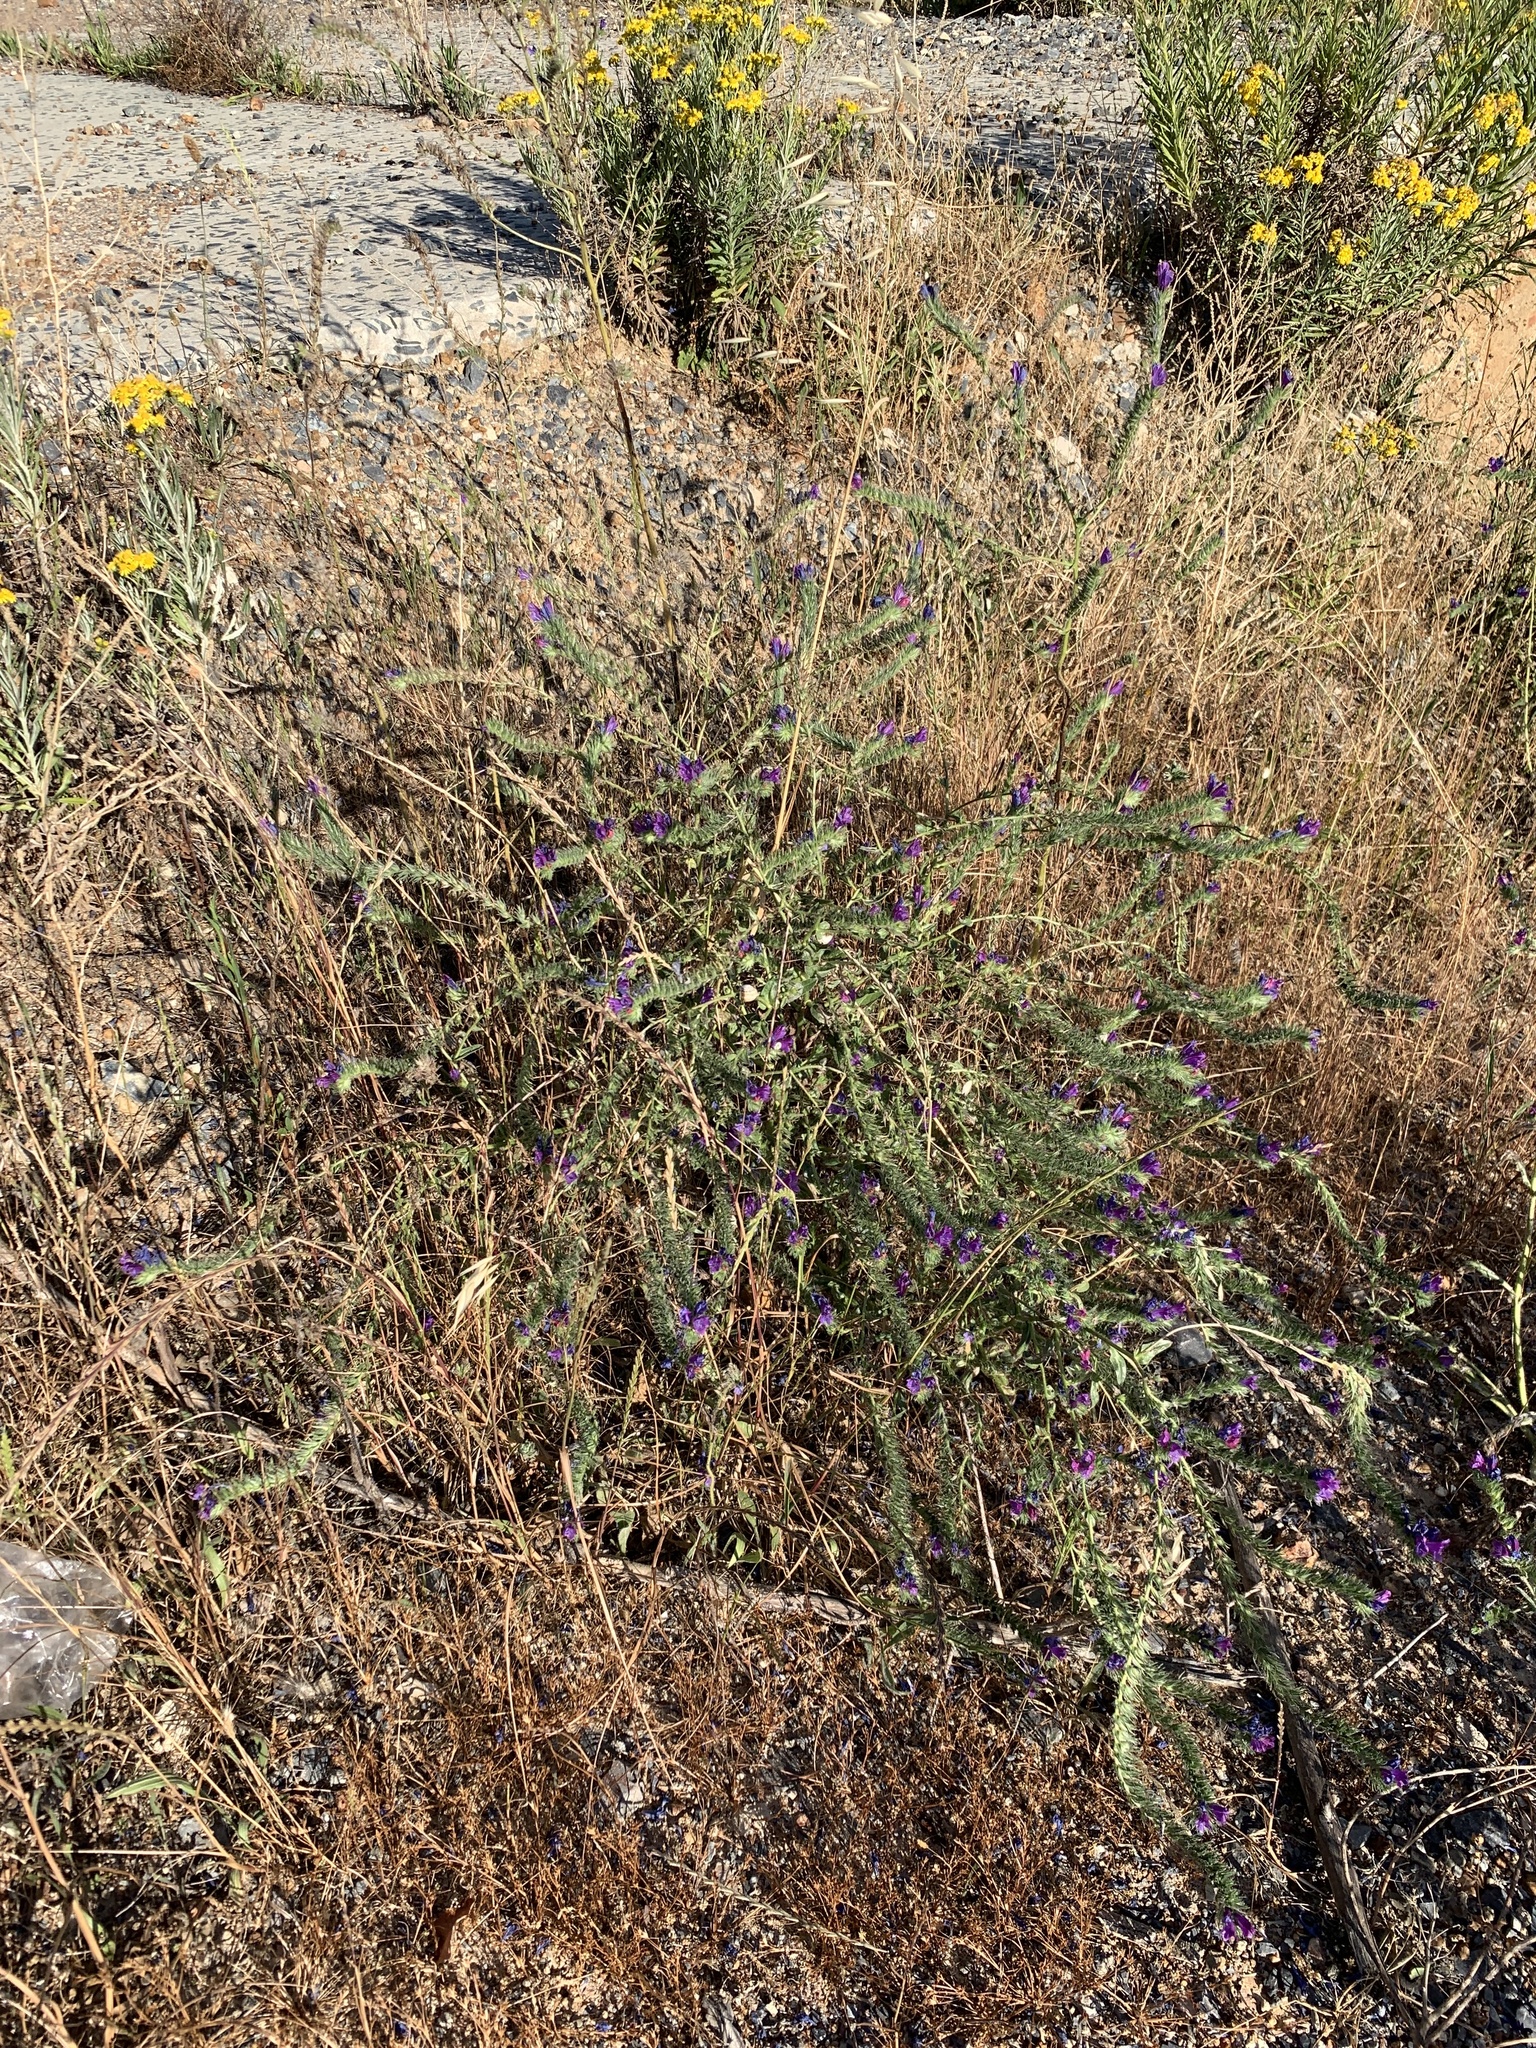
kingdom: Plantae
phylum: Tracheophyta
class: Magnoliopsida
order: Boraginales
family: Boraginaceae
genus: Echium
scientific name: Echium plantagineum
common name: Purple viper's-bugloss
